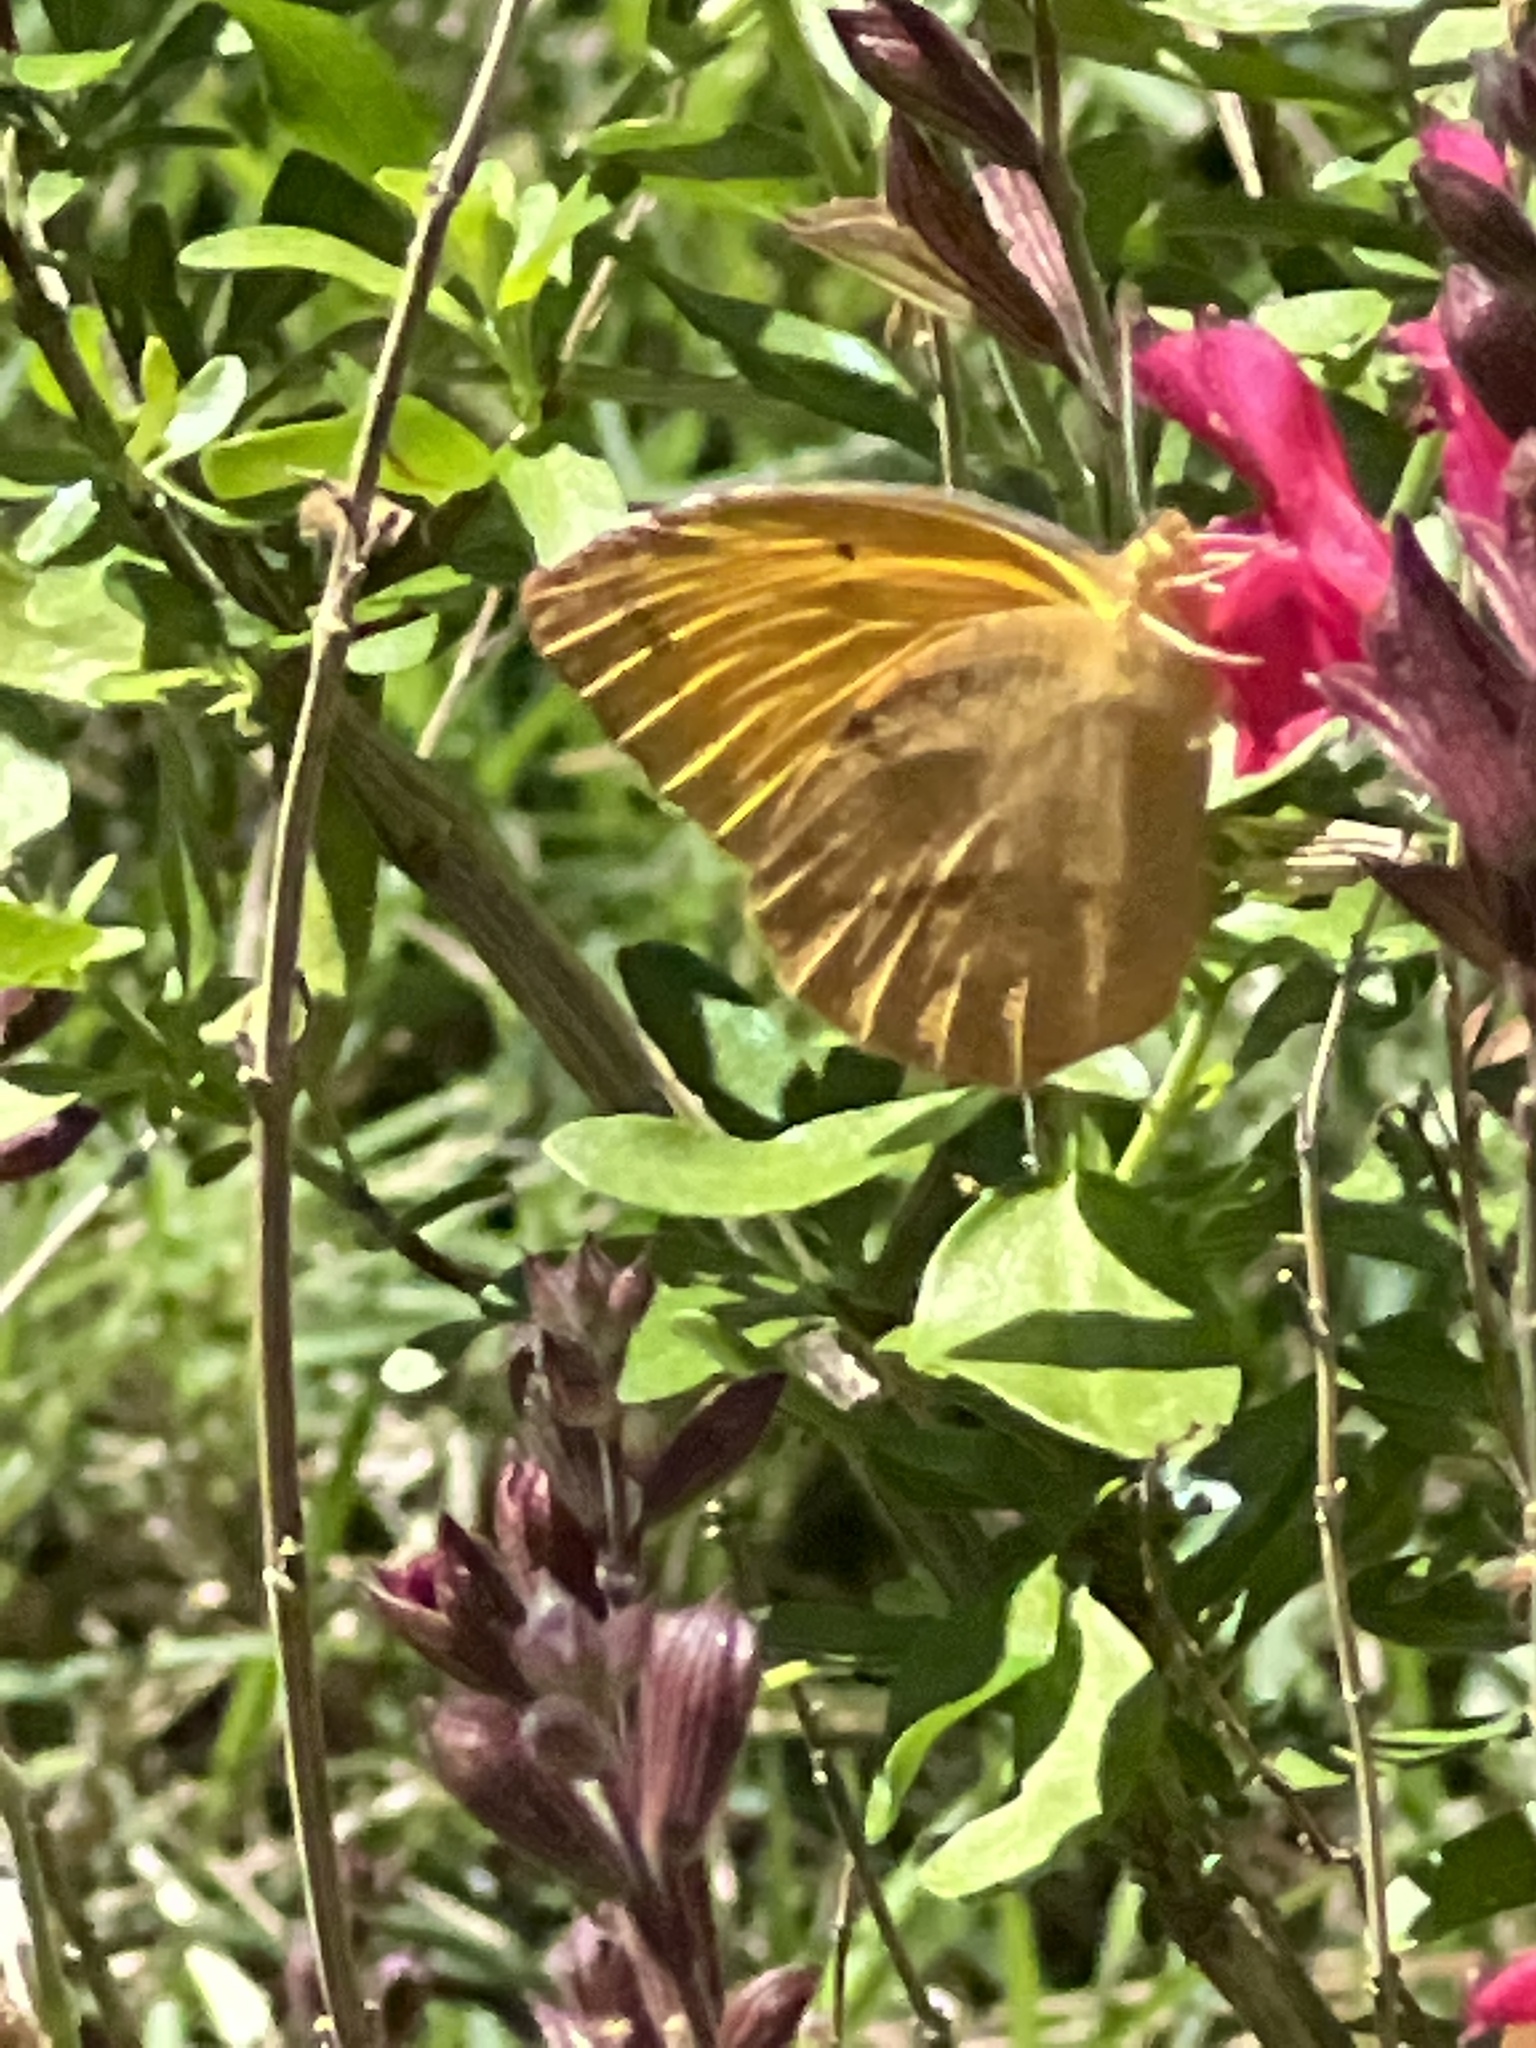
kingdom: Animalia
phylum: Arthropoda
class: Insecta
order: Lepidoptera
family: Pieridae
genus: Abaeis
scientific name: Abaeis nicippe
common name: Sleepy orange
